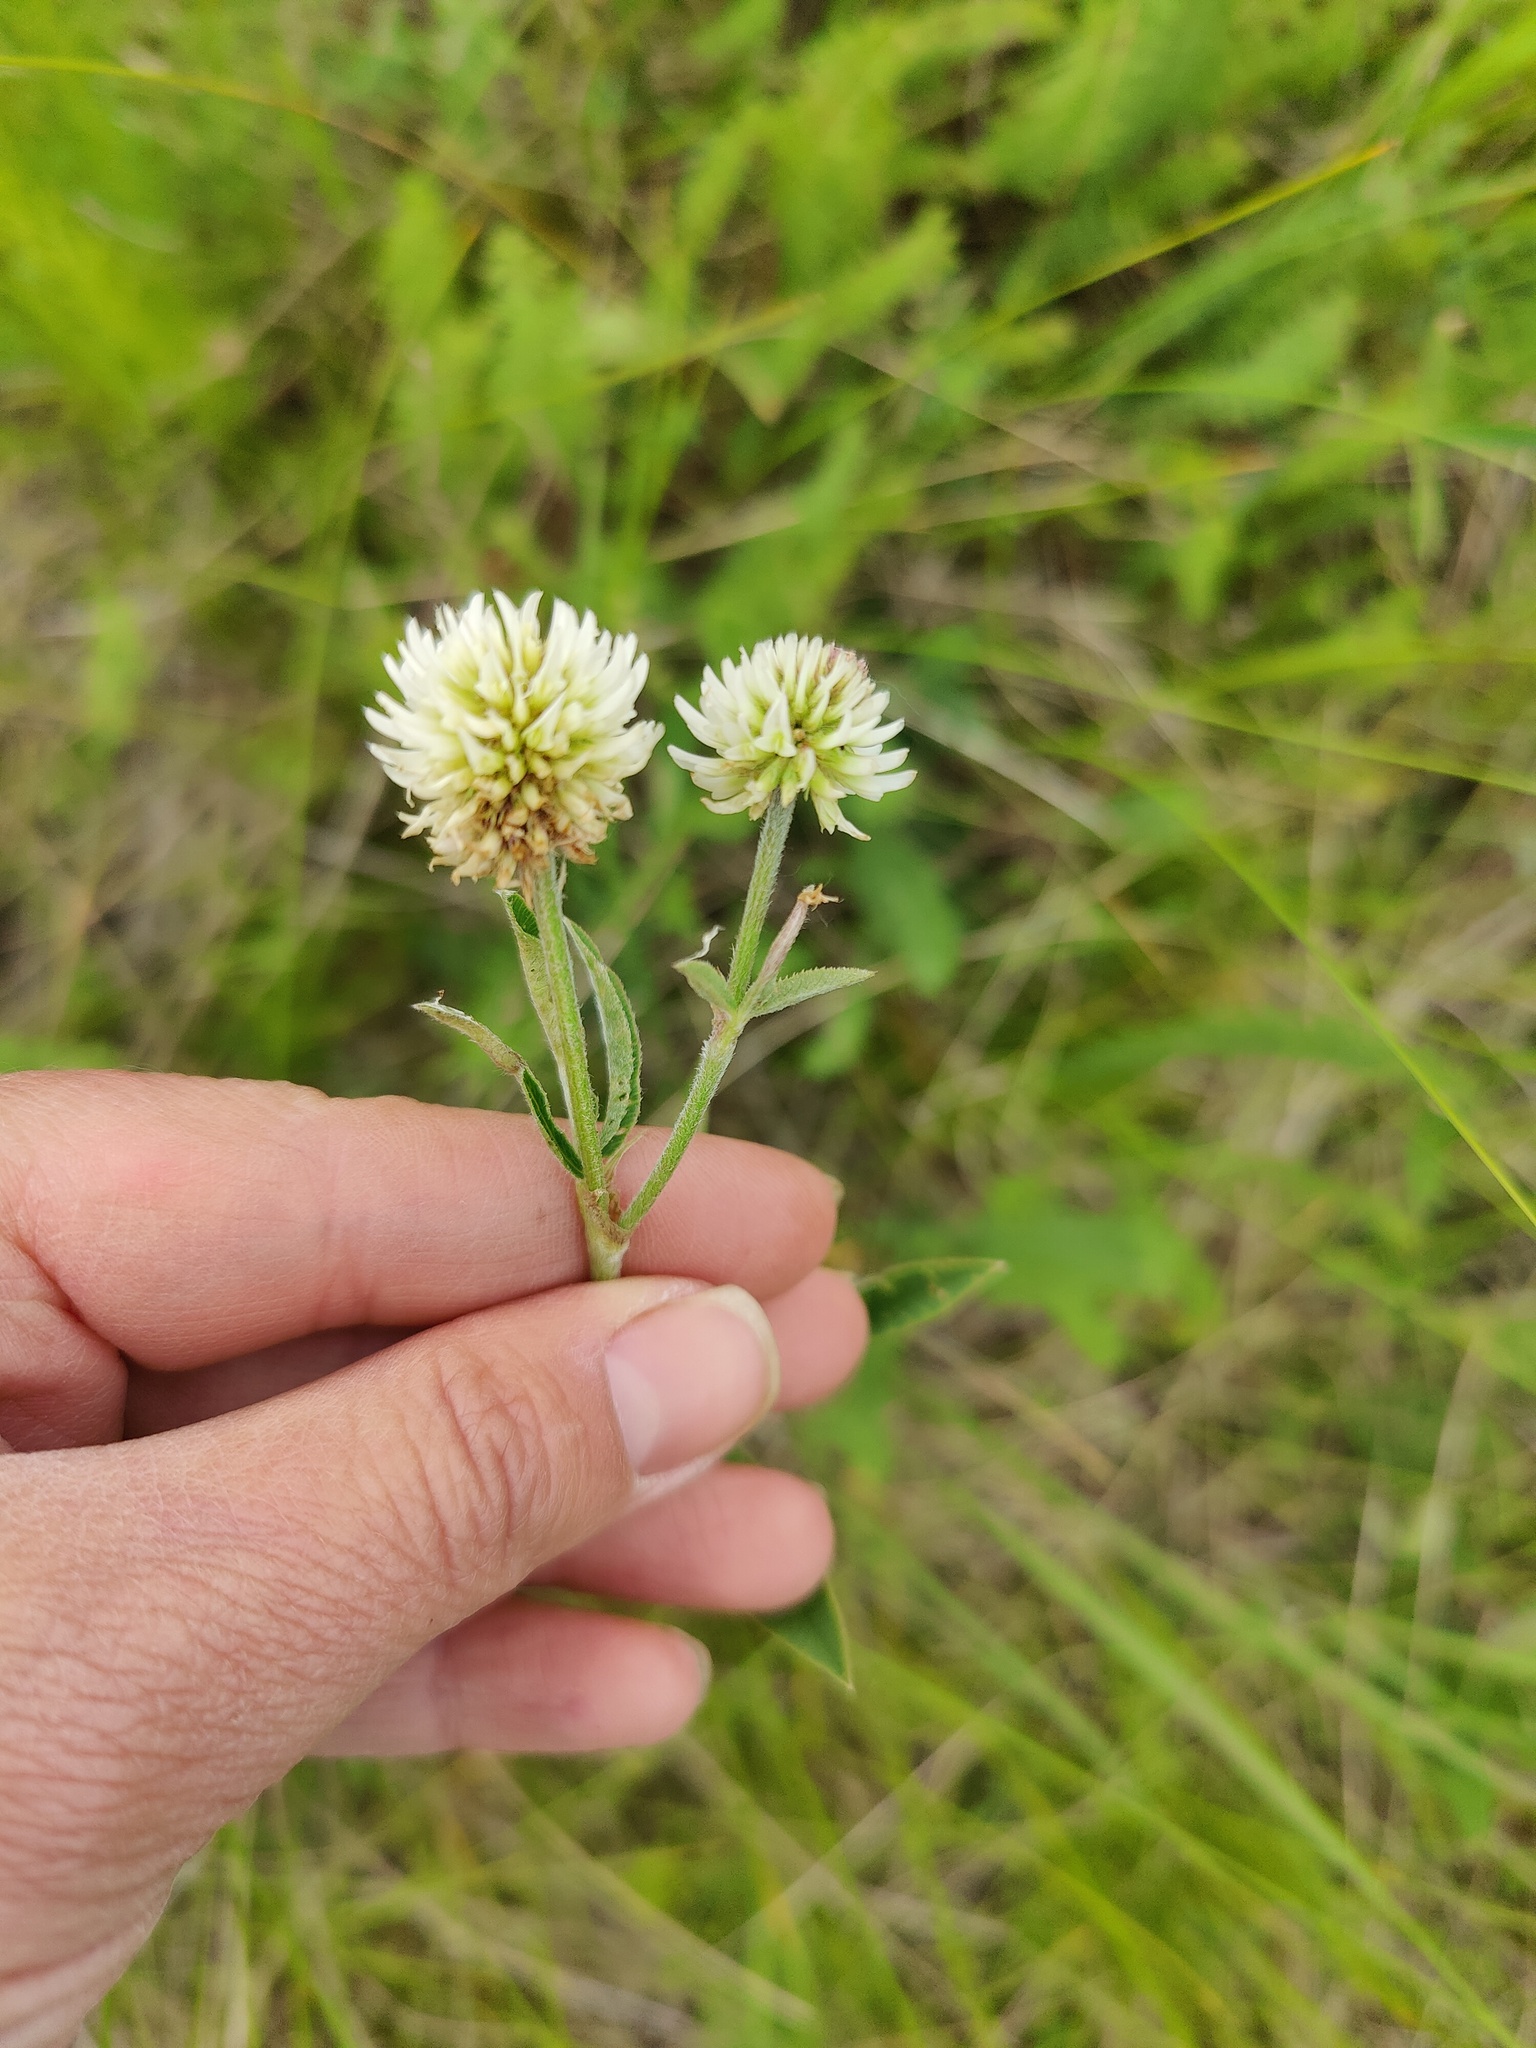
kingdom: Plantae
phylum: Tracheophyta
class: Magnoliopsida
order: Fabales
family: Fabaceae
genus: Trifolium
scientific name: Trifolium montanum
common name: Mountain clover
